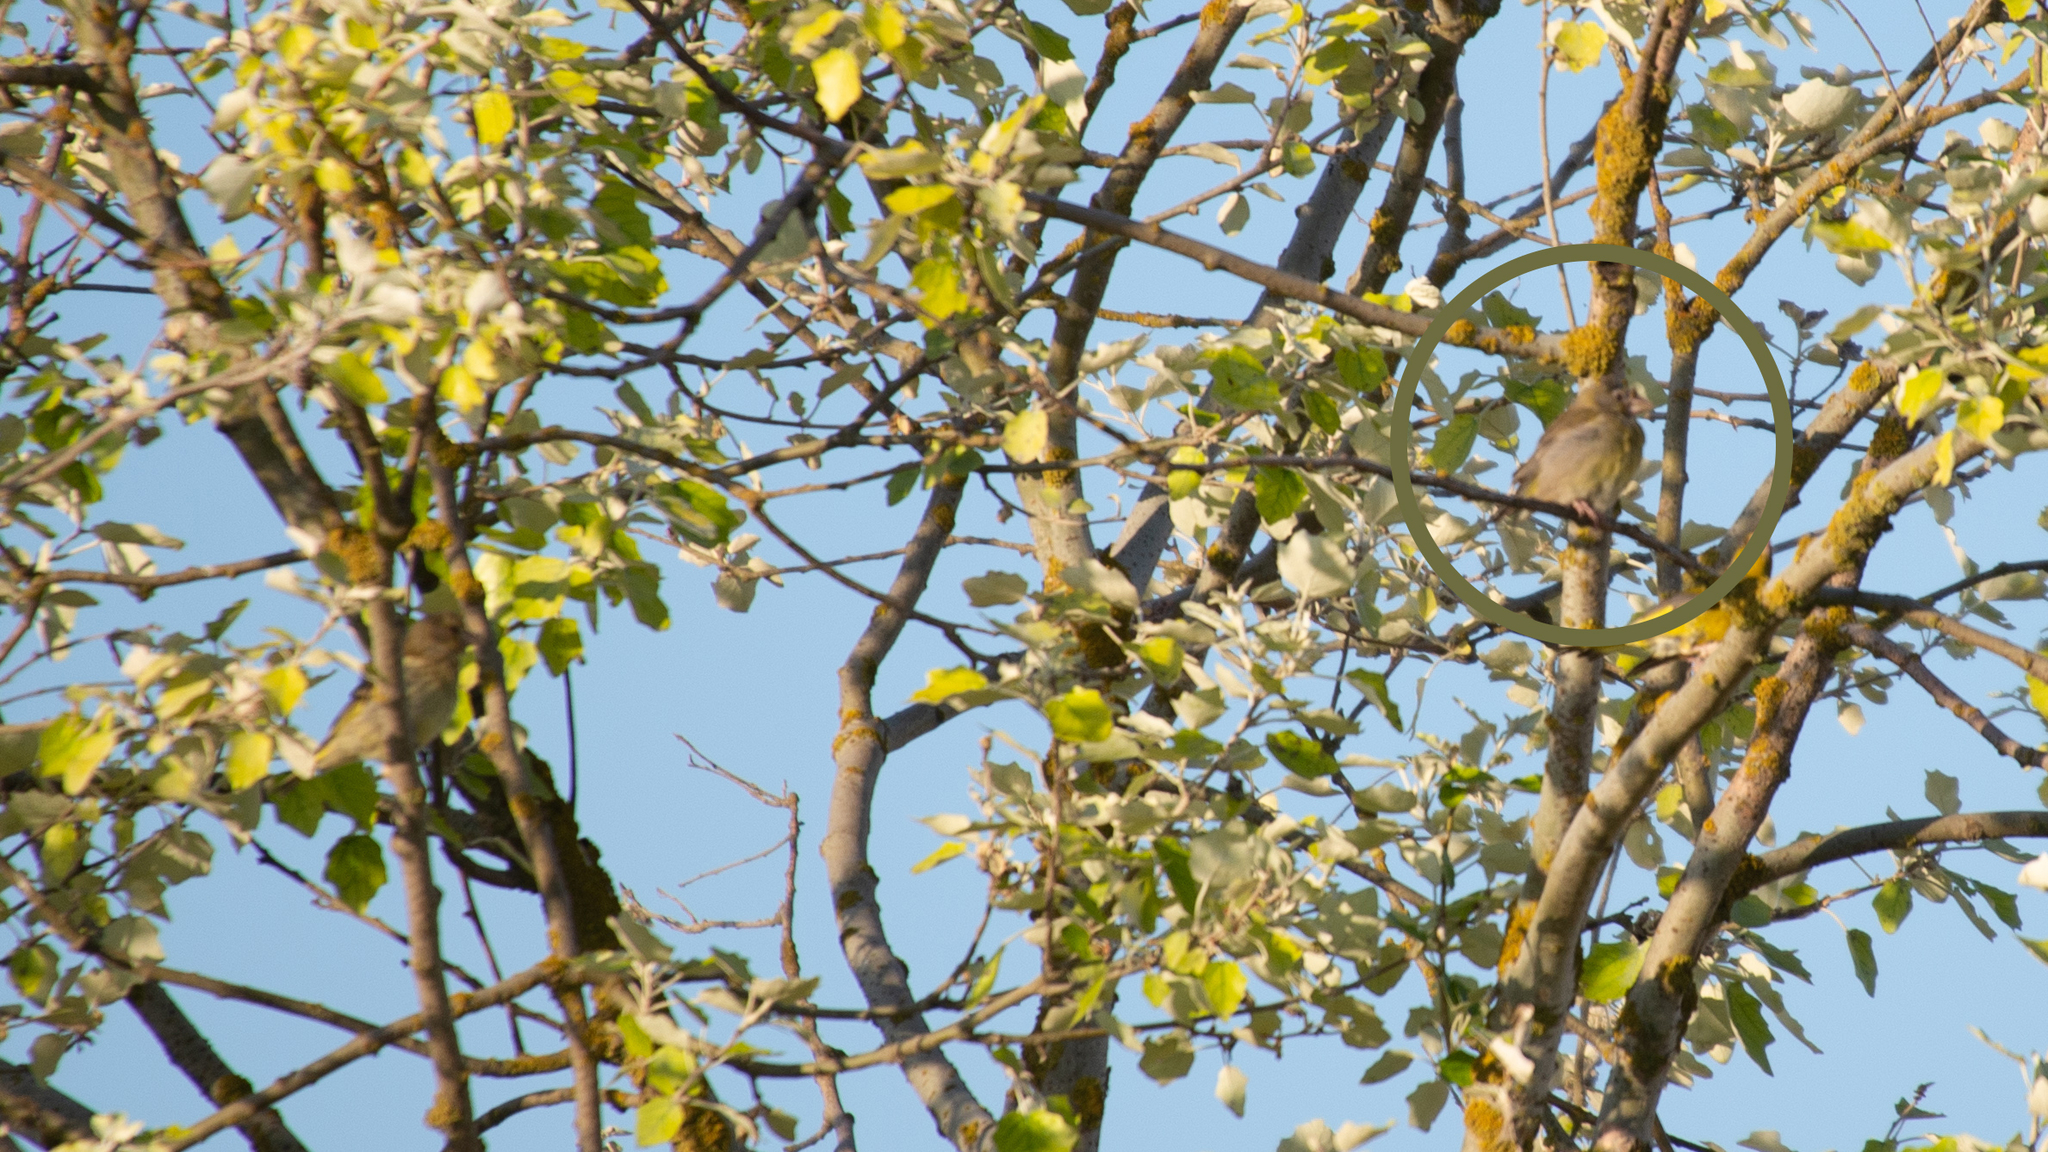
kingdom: Plantae
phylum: Tracheophyta
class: Liliopsida
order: Poales
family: Poaceae
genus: Chloris
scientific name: Chloris chloris
